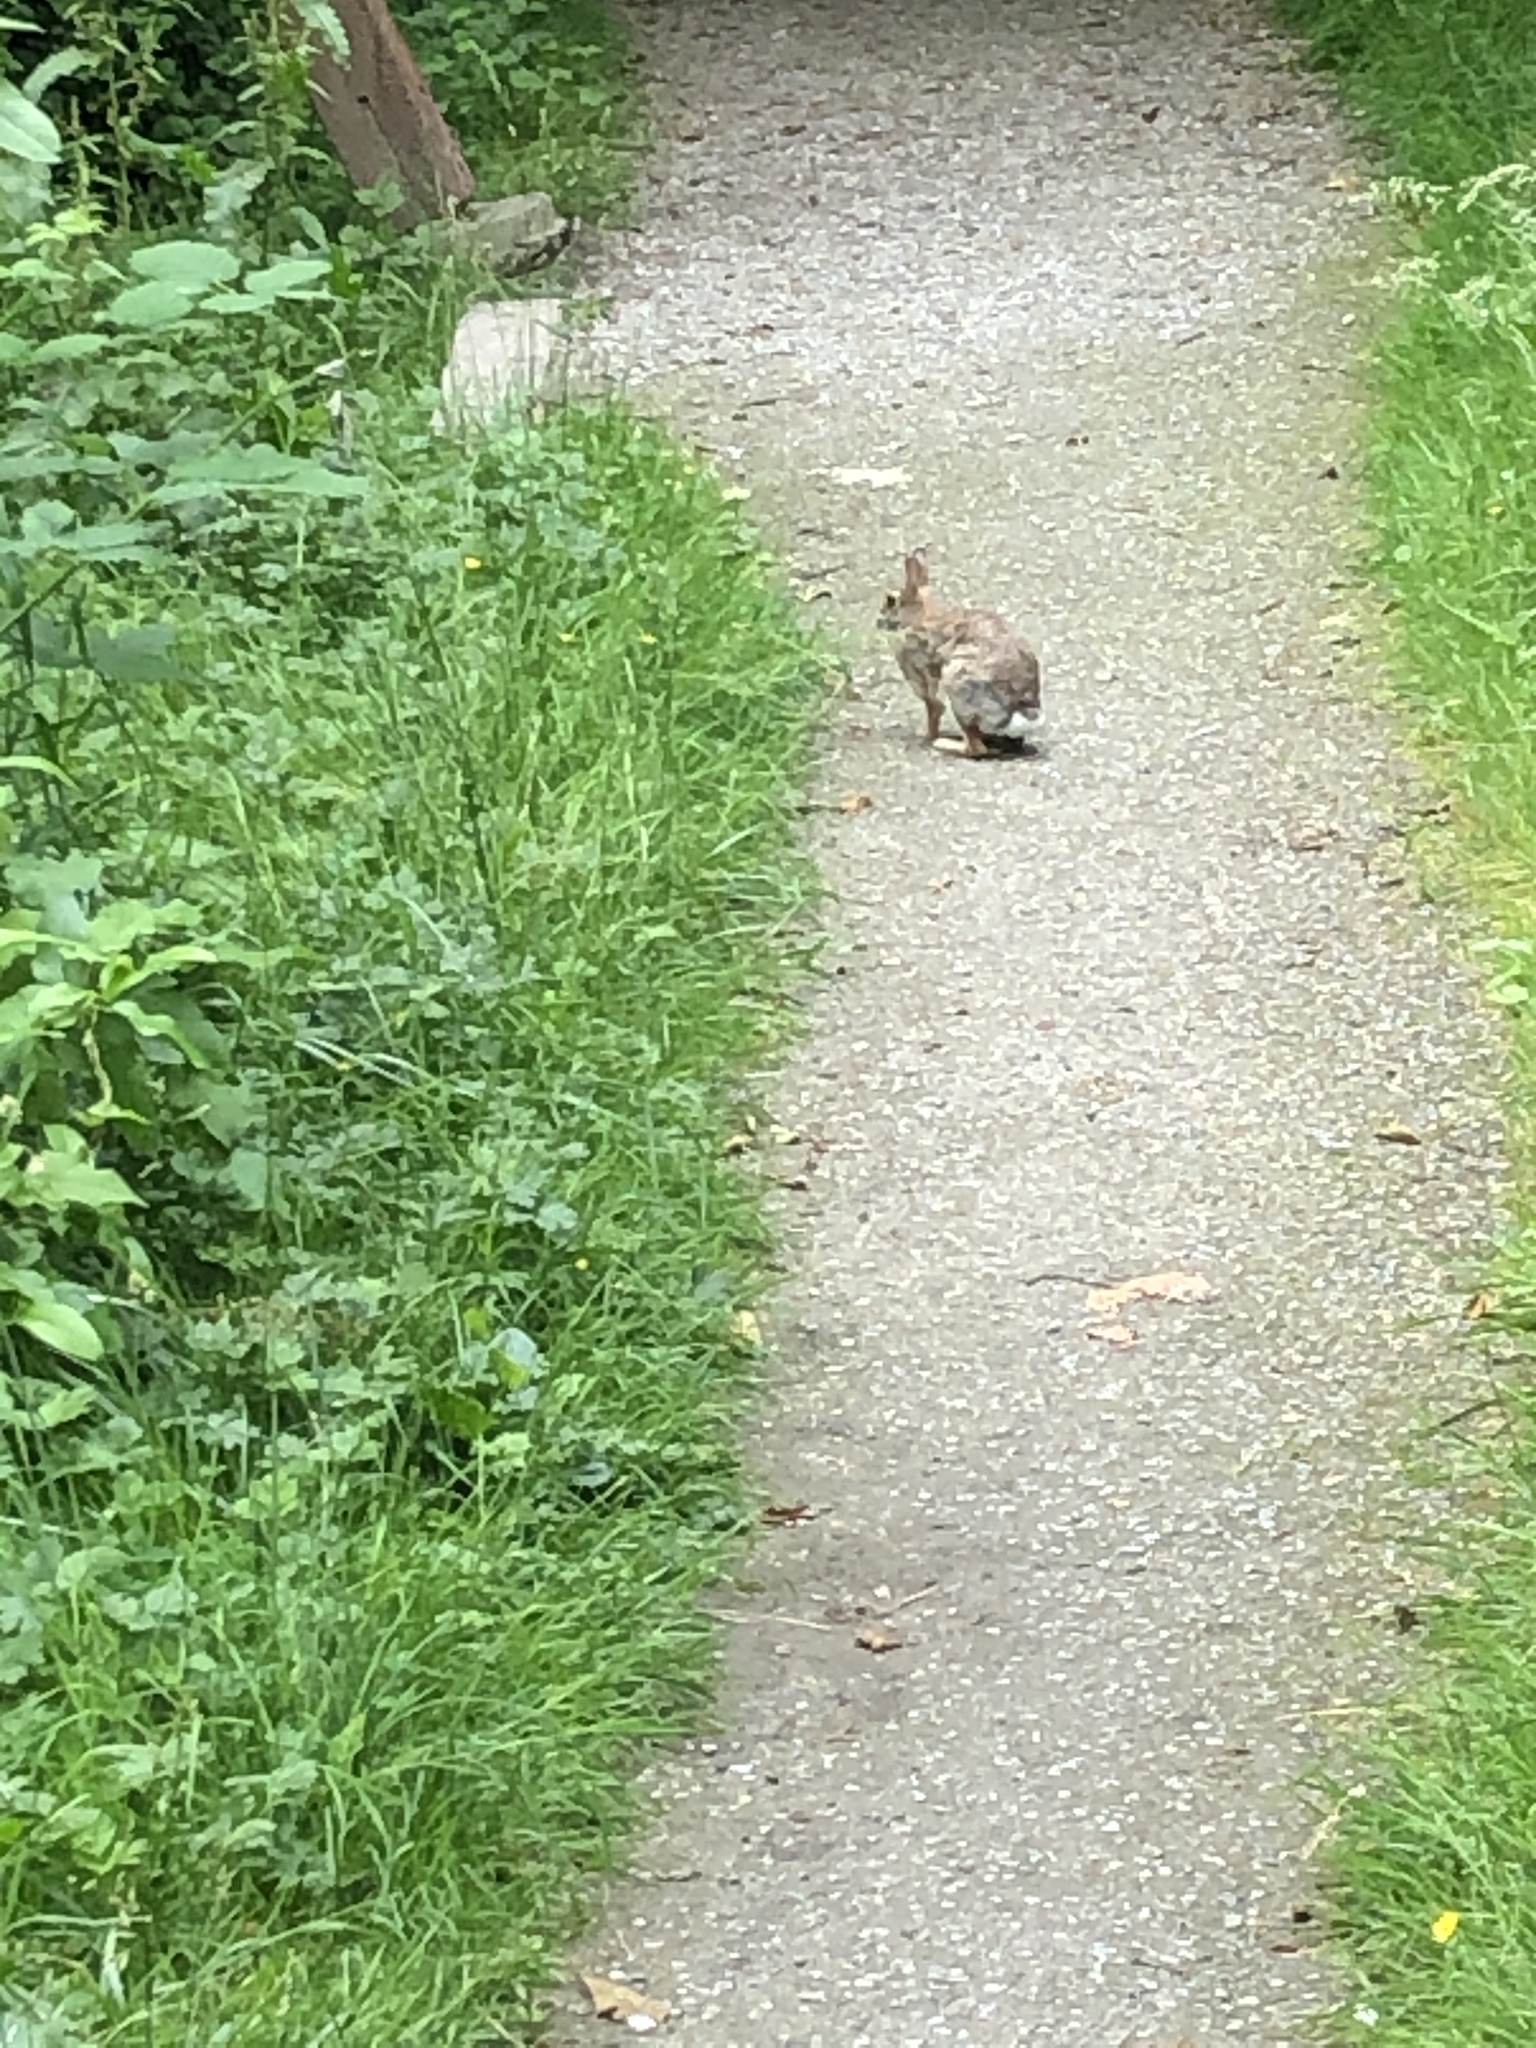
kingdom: Animalia
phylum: Chordata
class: Mammalia
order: Lagomorpha
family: Leporidae
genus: Sylvilagus
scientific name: Sylvilagus floridanus
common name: Eastern cottontail
